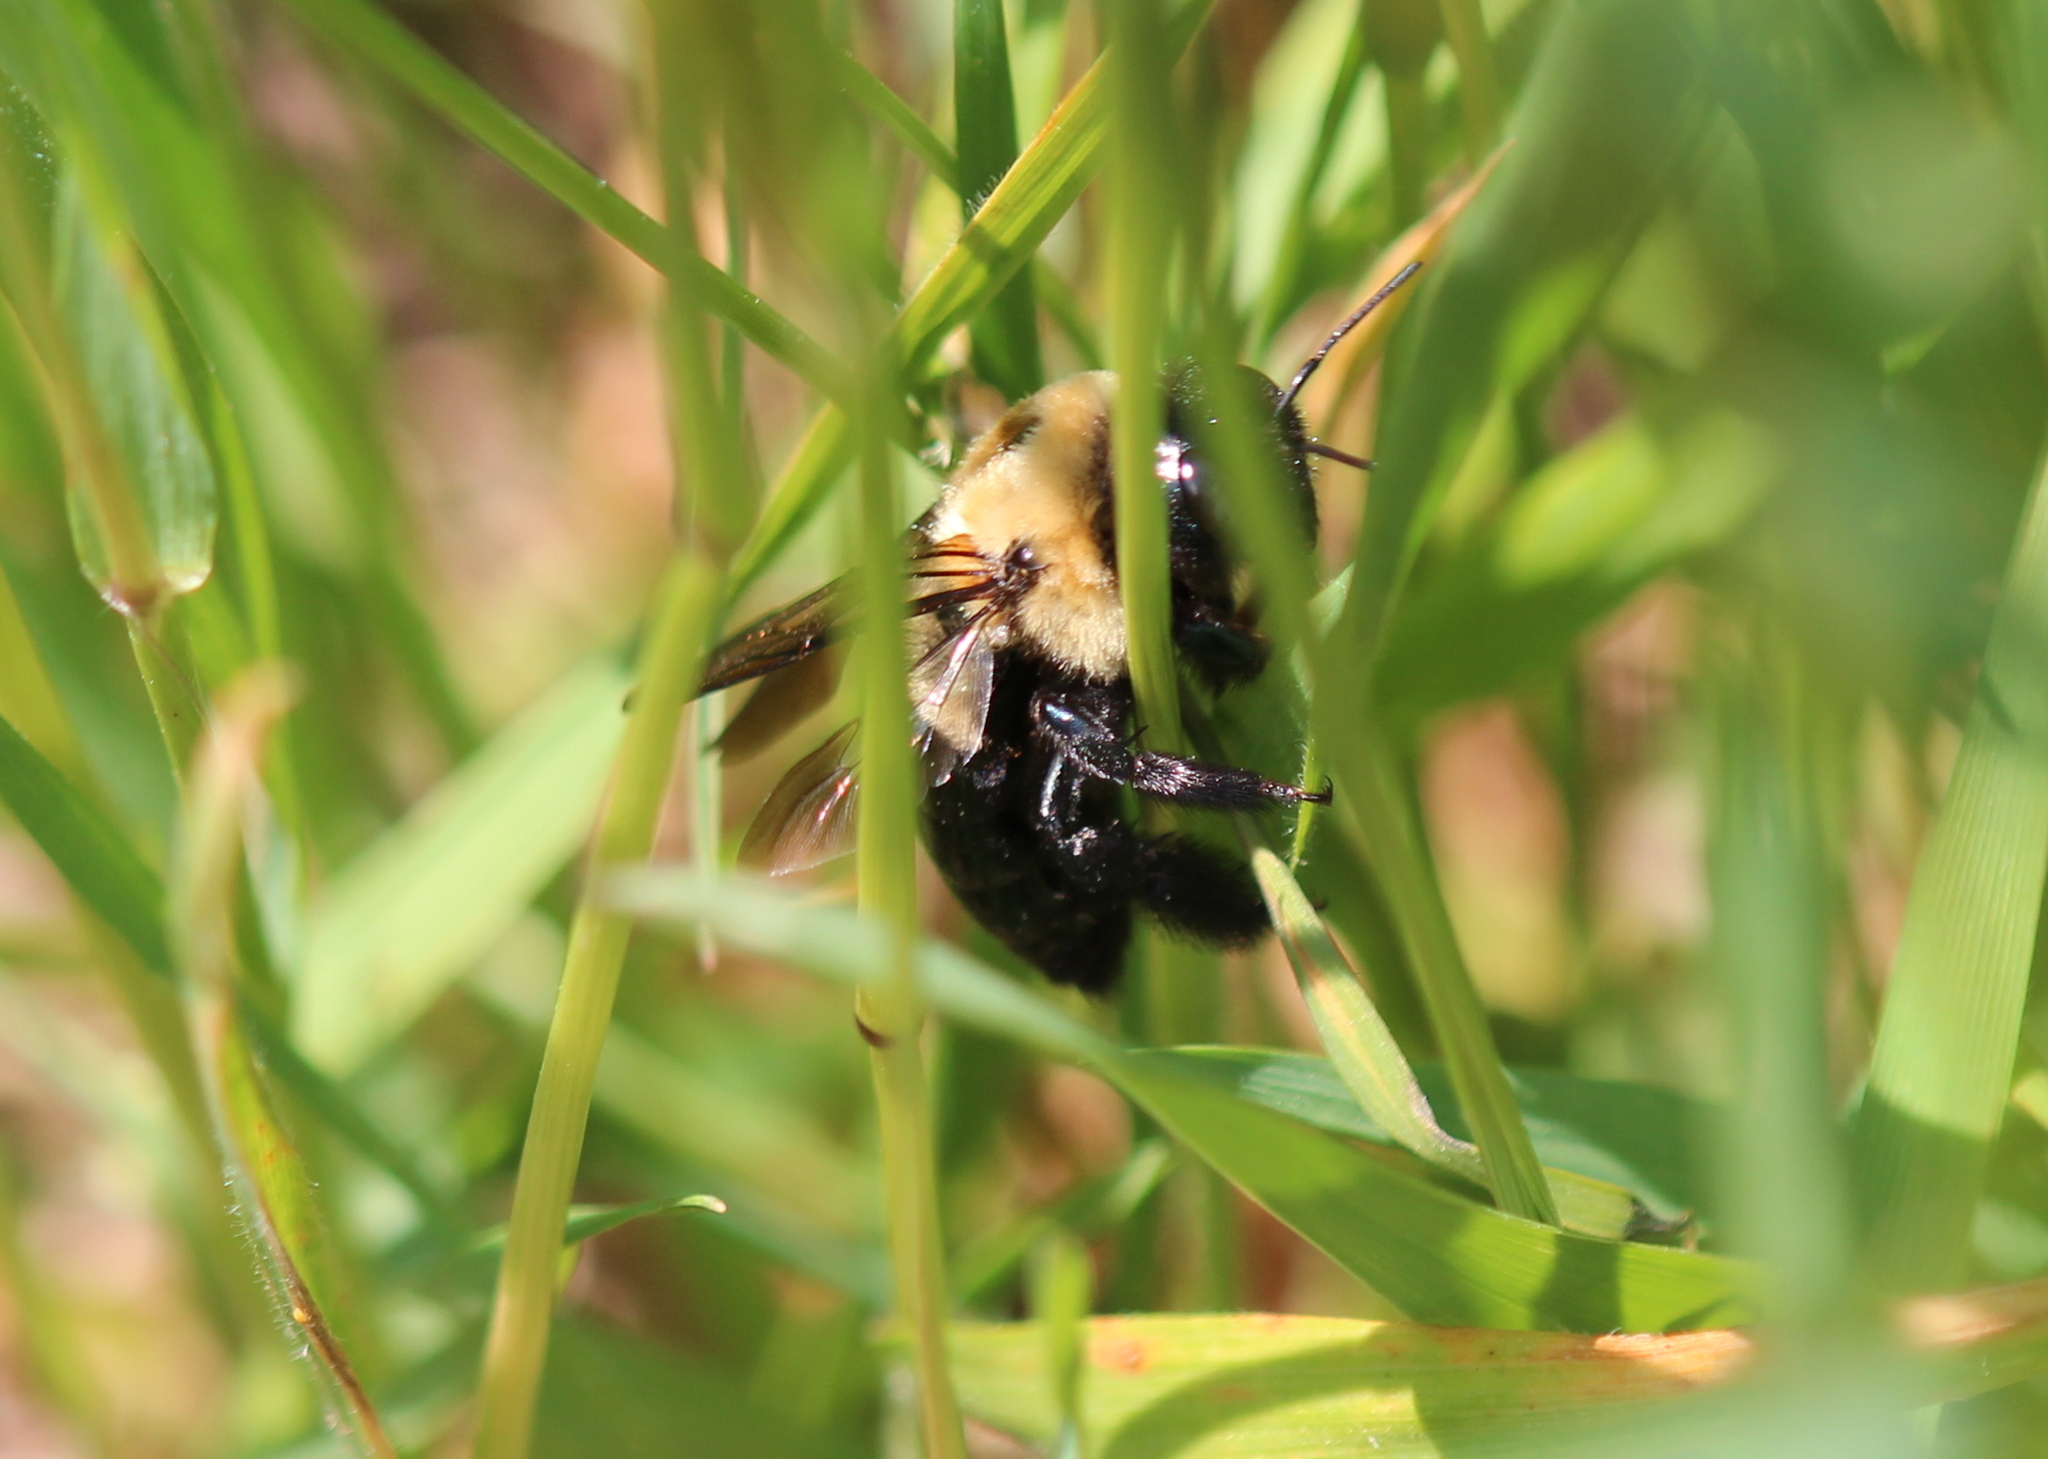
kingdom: Animalia
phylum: Arthropoda
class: Insecta
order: Hymenoptera
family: Apidae
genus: Xylocopa
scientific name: Xylocopa virginica
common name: Carpenter bee
